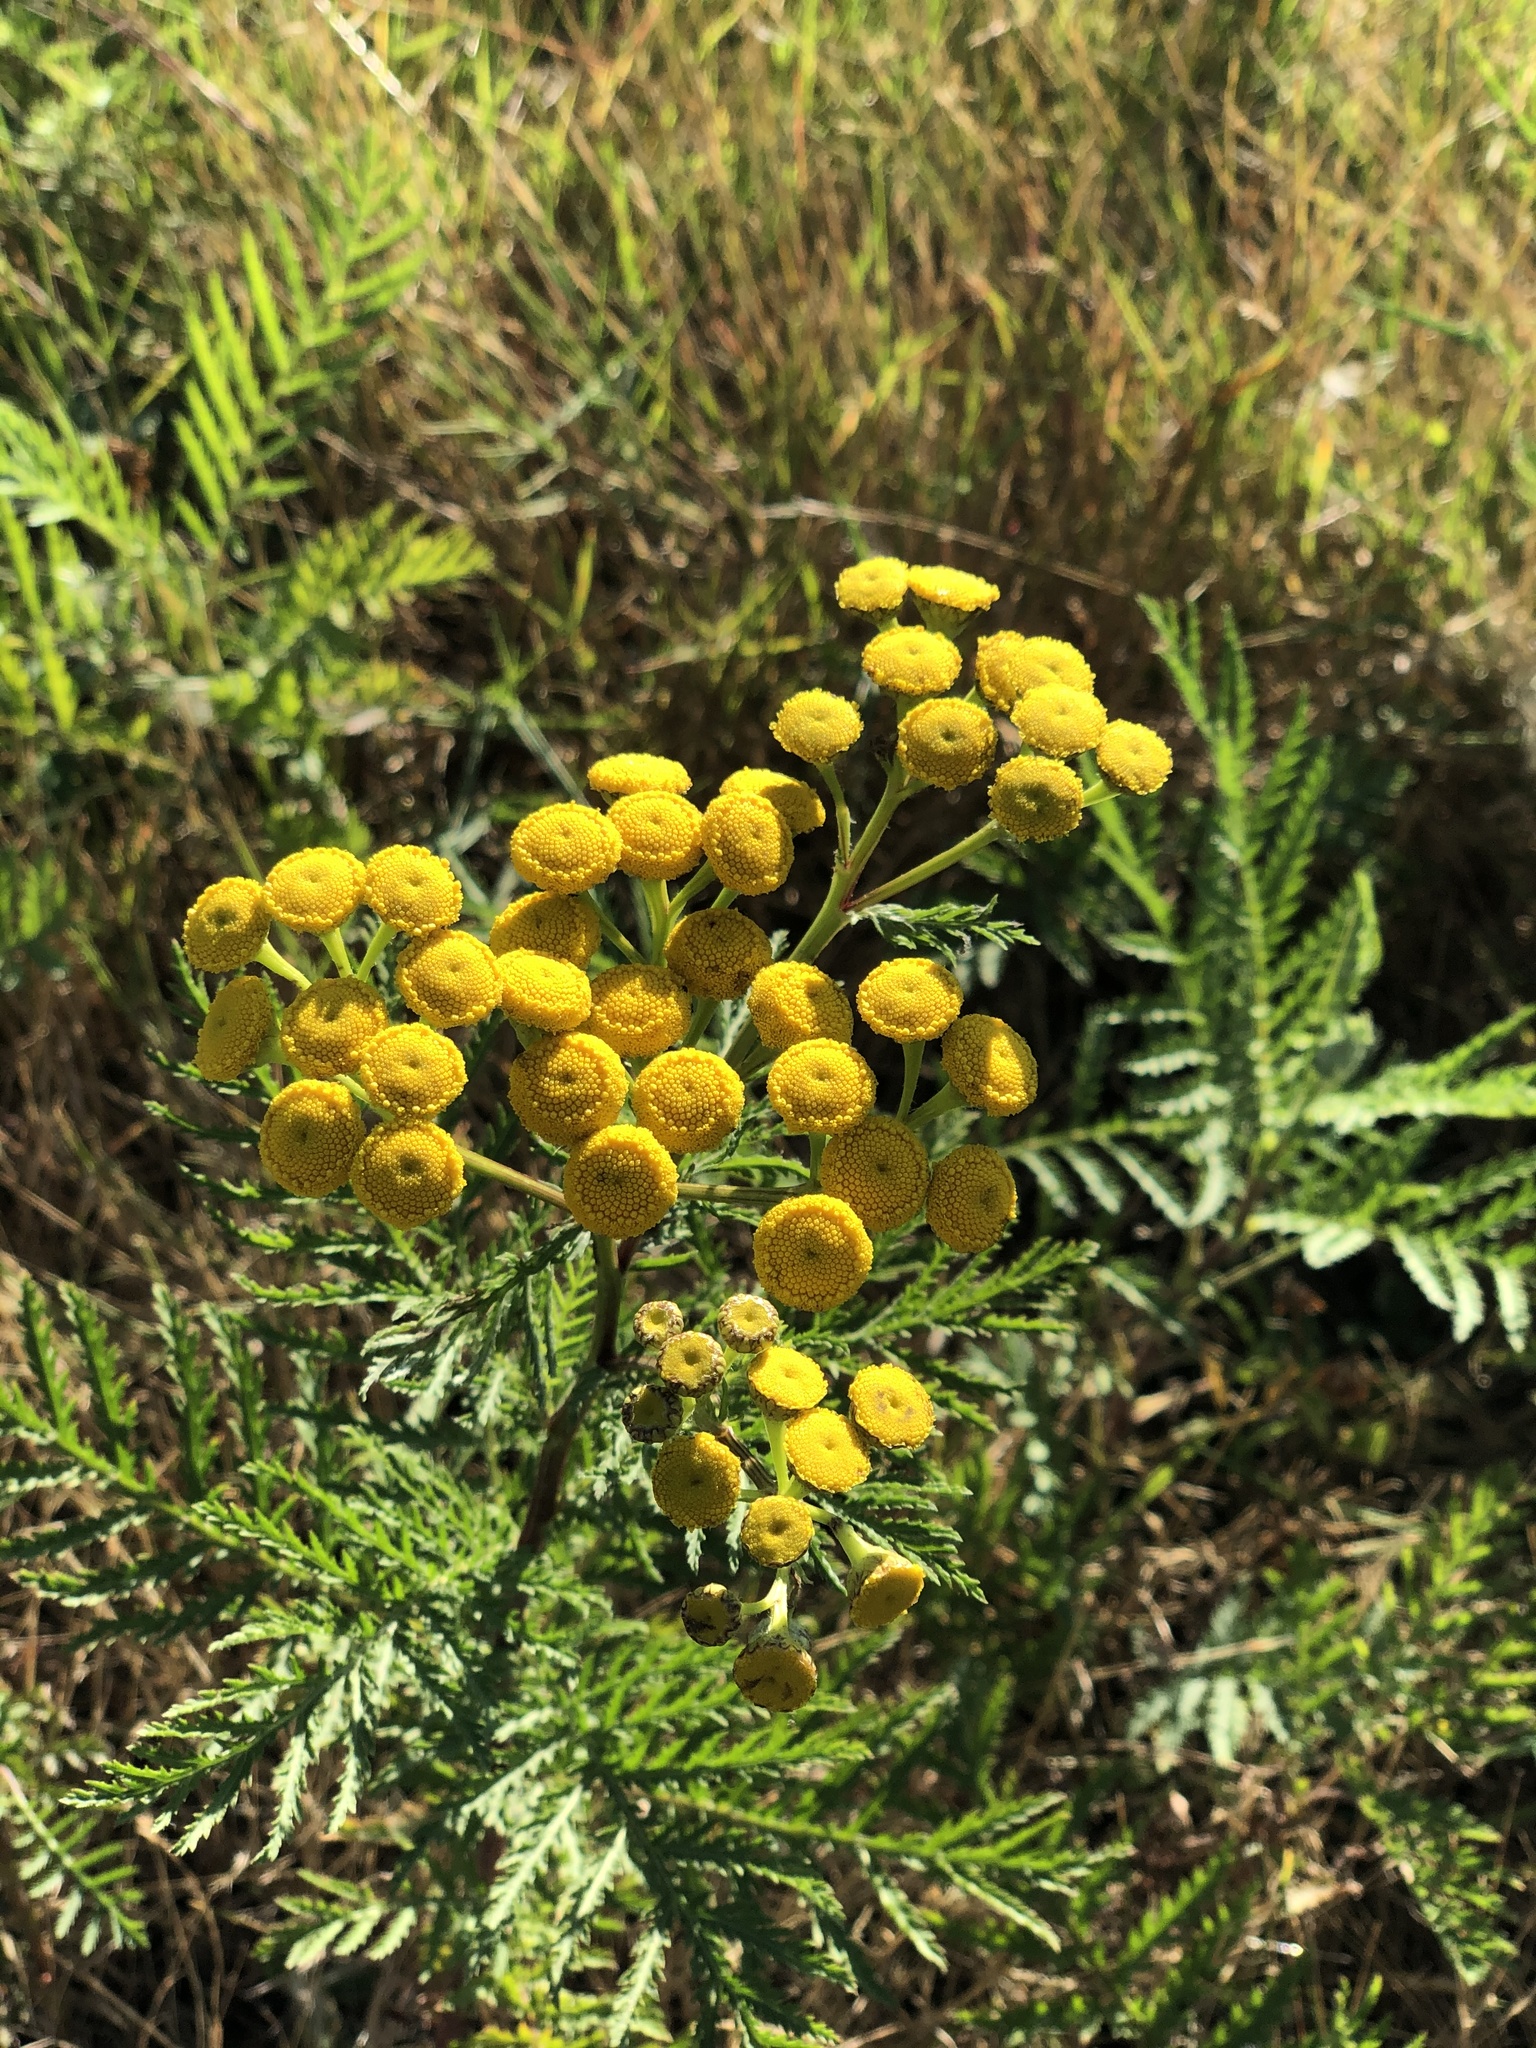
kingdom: Plantae
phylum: Tracheophyta
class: Magnoliopsida
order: Asterales
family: Asteraceae
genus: Tanacetum
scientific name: Tanacetum vulgare
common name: Common tansy
